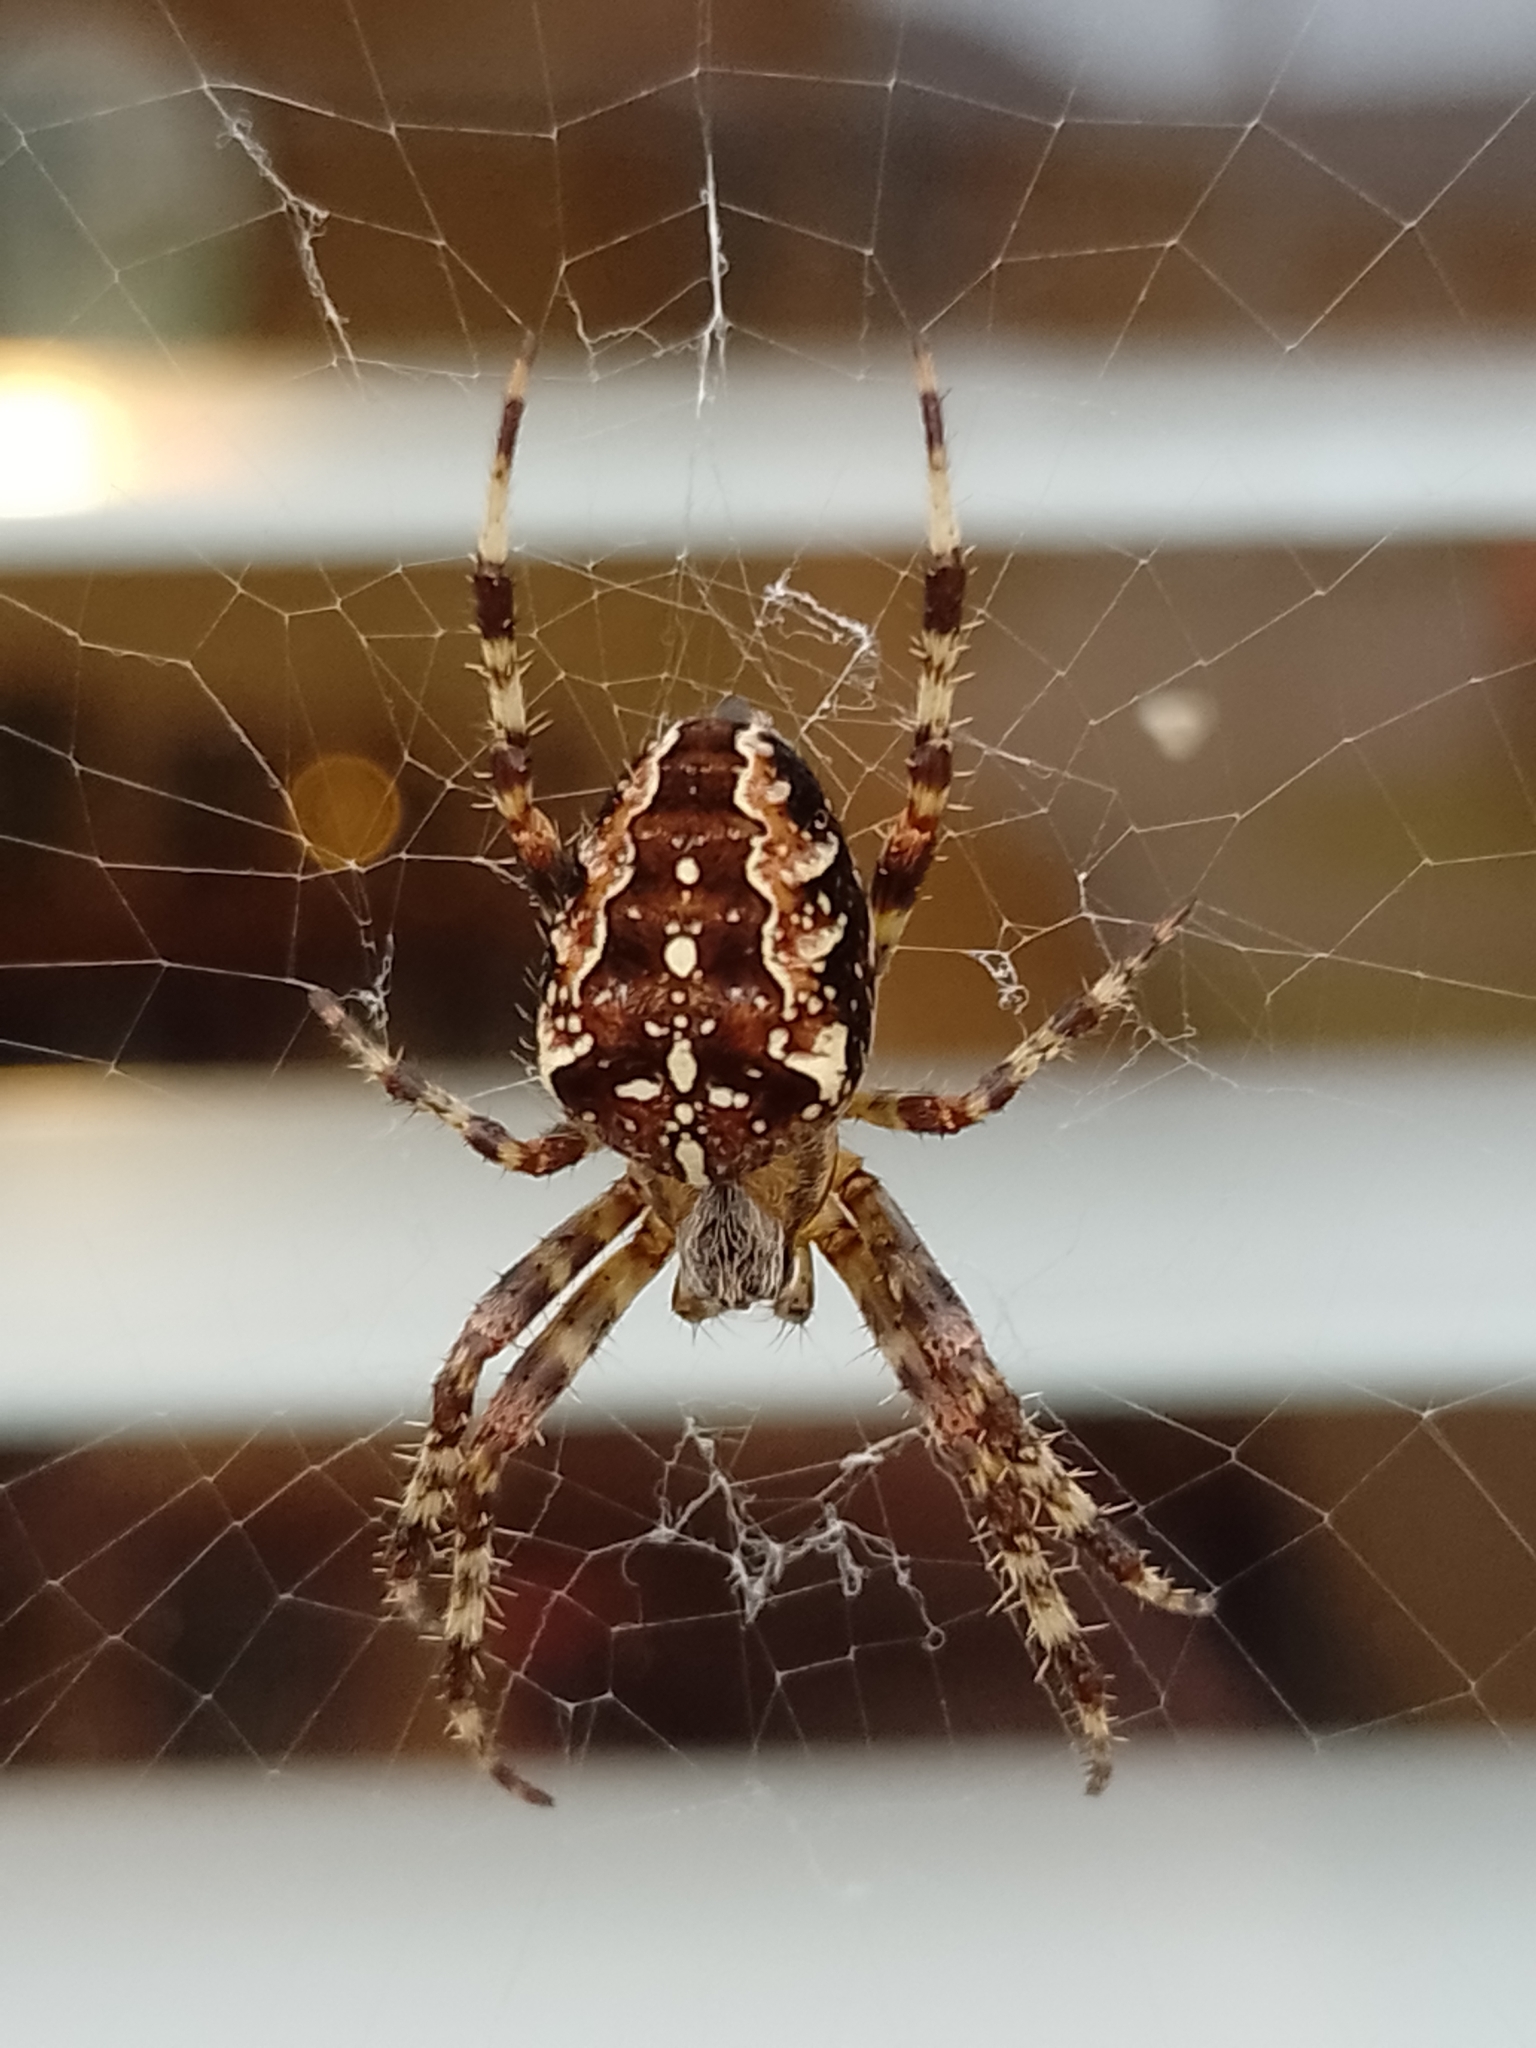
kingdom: Animalia
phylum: Arthropoda
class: Arachnida
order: Araneae
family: Araneidae
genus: Araneus
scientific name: Araneus diadematus
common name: Cross orbweaver
